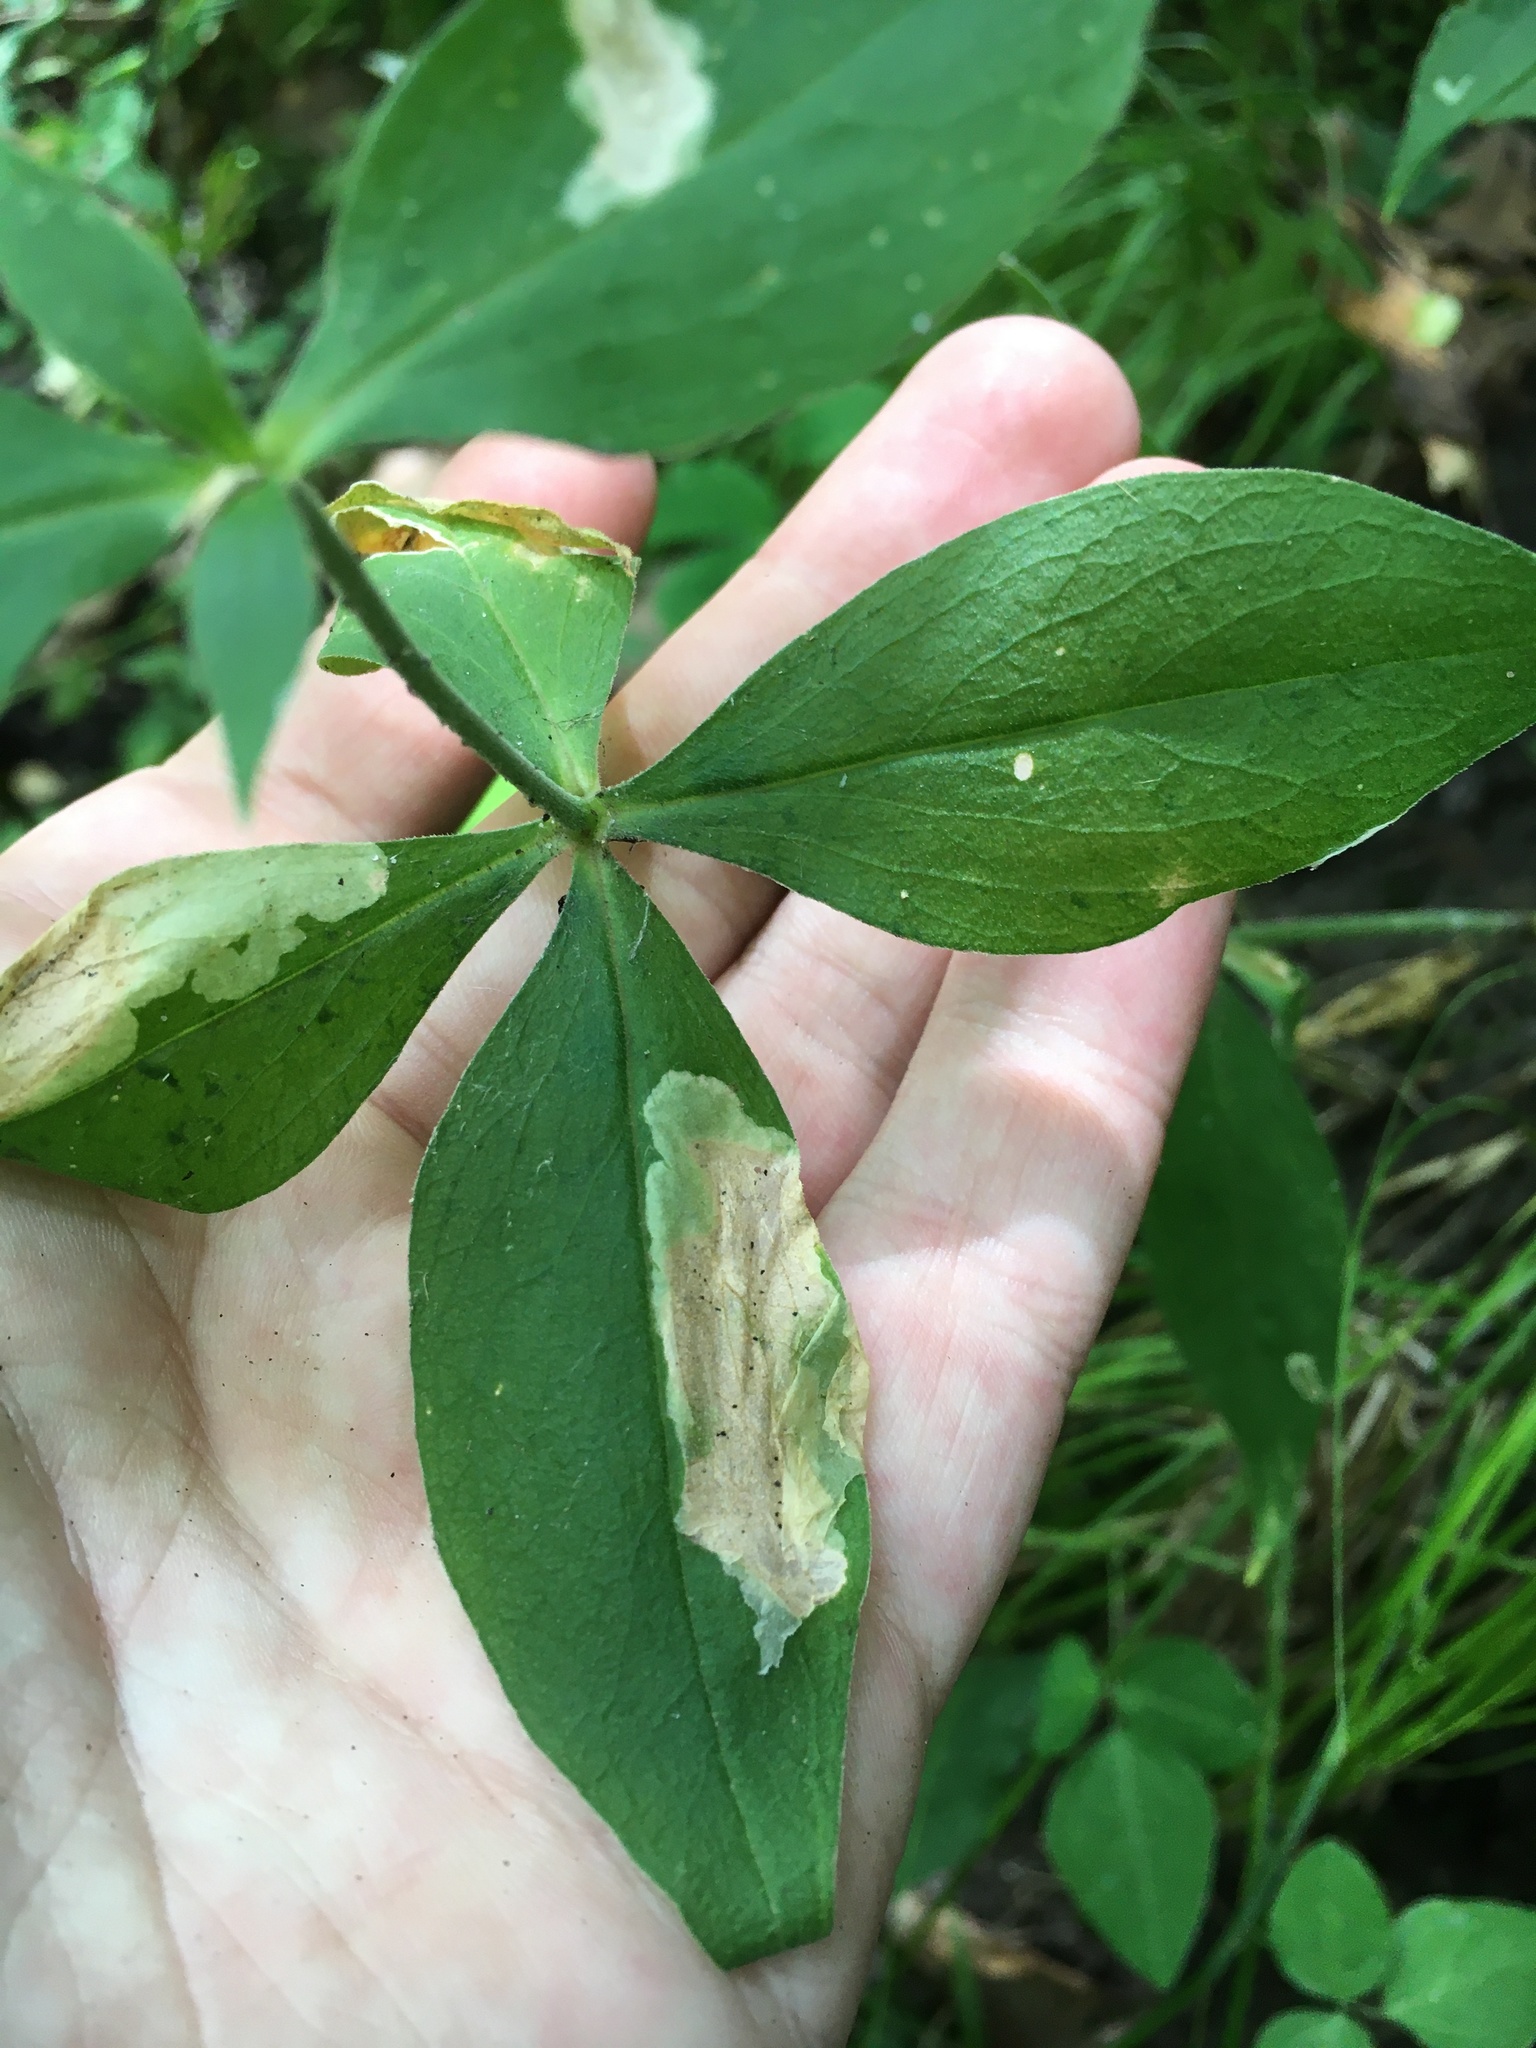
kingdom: Animalia
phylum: Arthropoda
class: Insecta
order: Diptera
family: Agromyzidae
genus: Amauromyza
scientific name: Amauromyza flavifrons
